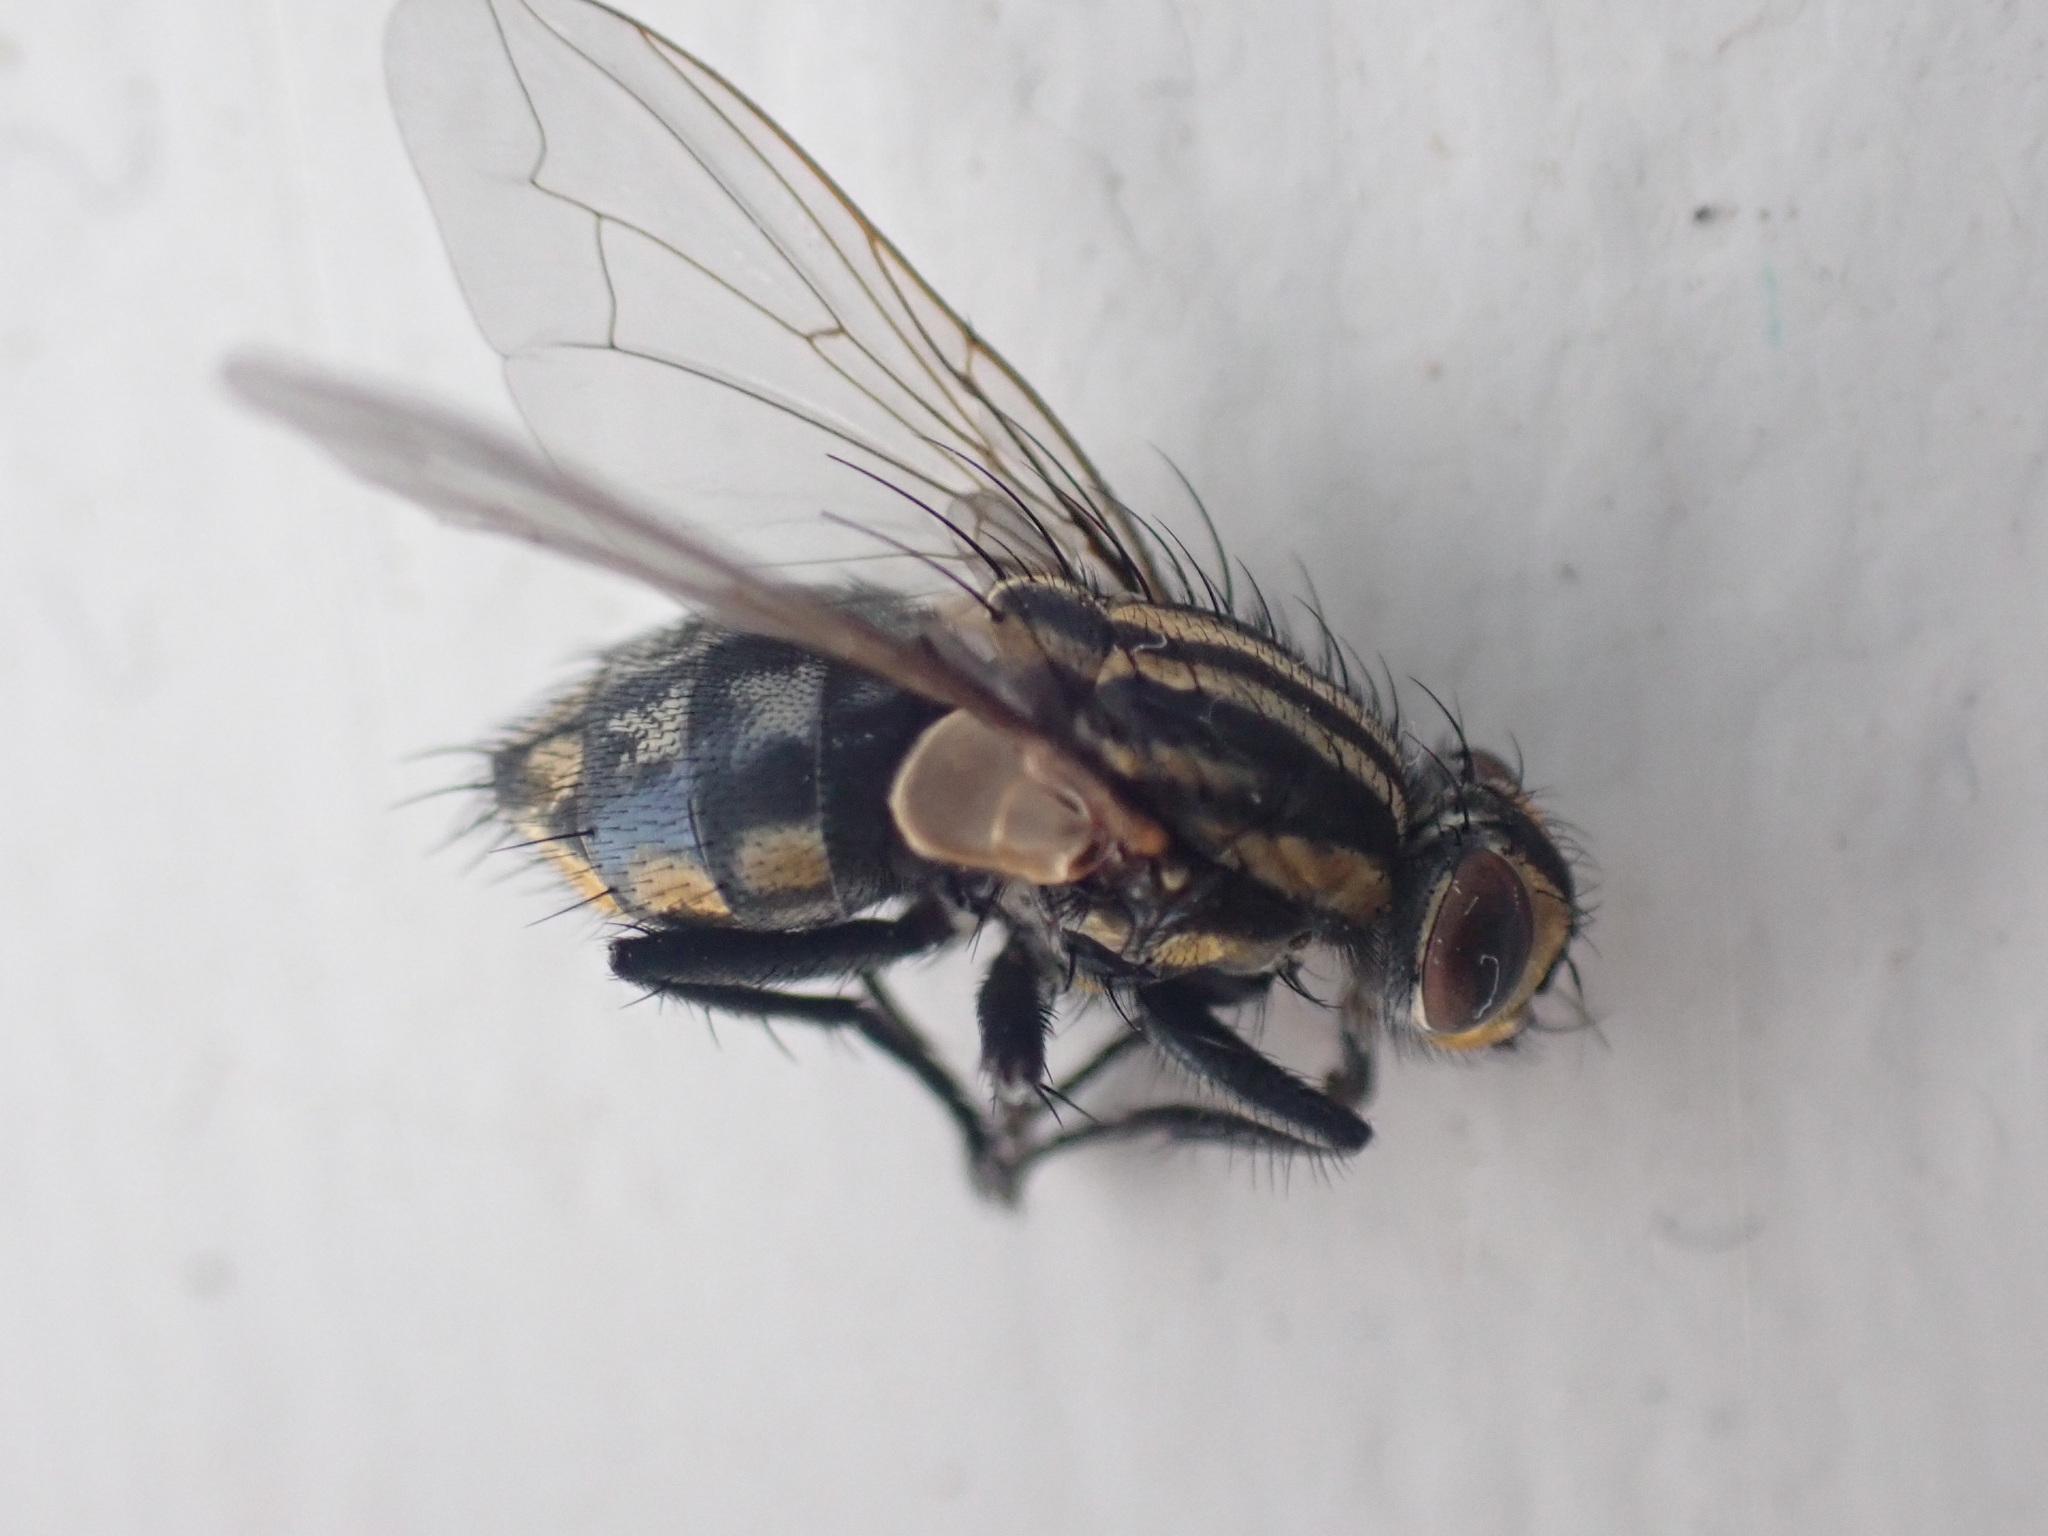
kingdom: Animalia
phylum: Arthropoda
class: Insecta
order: Diptera
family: Sarcophagidae
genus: Oxysarcodexia
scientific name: Oxysarcodexia varia
